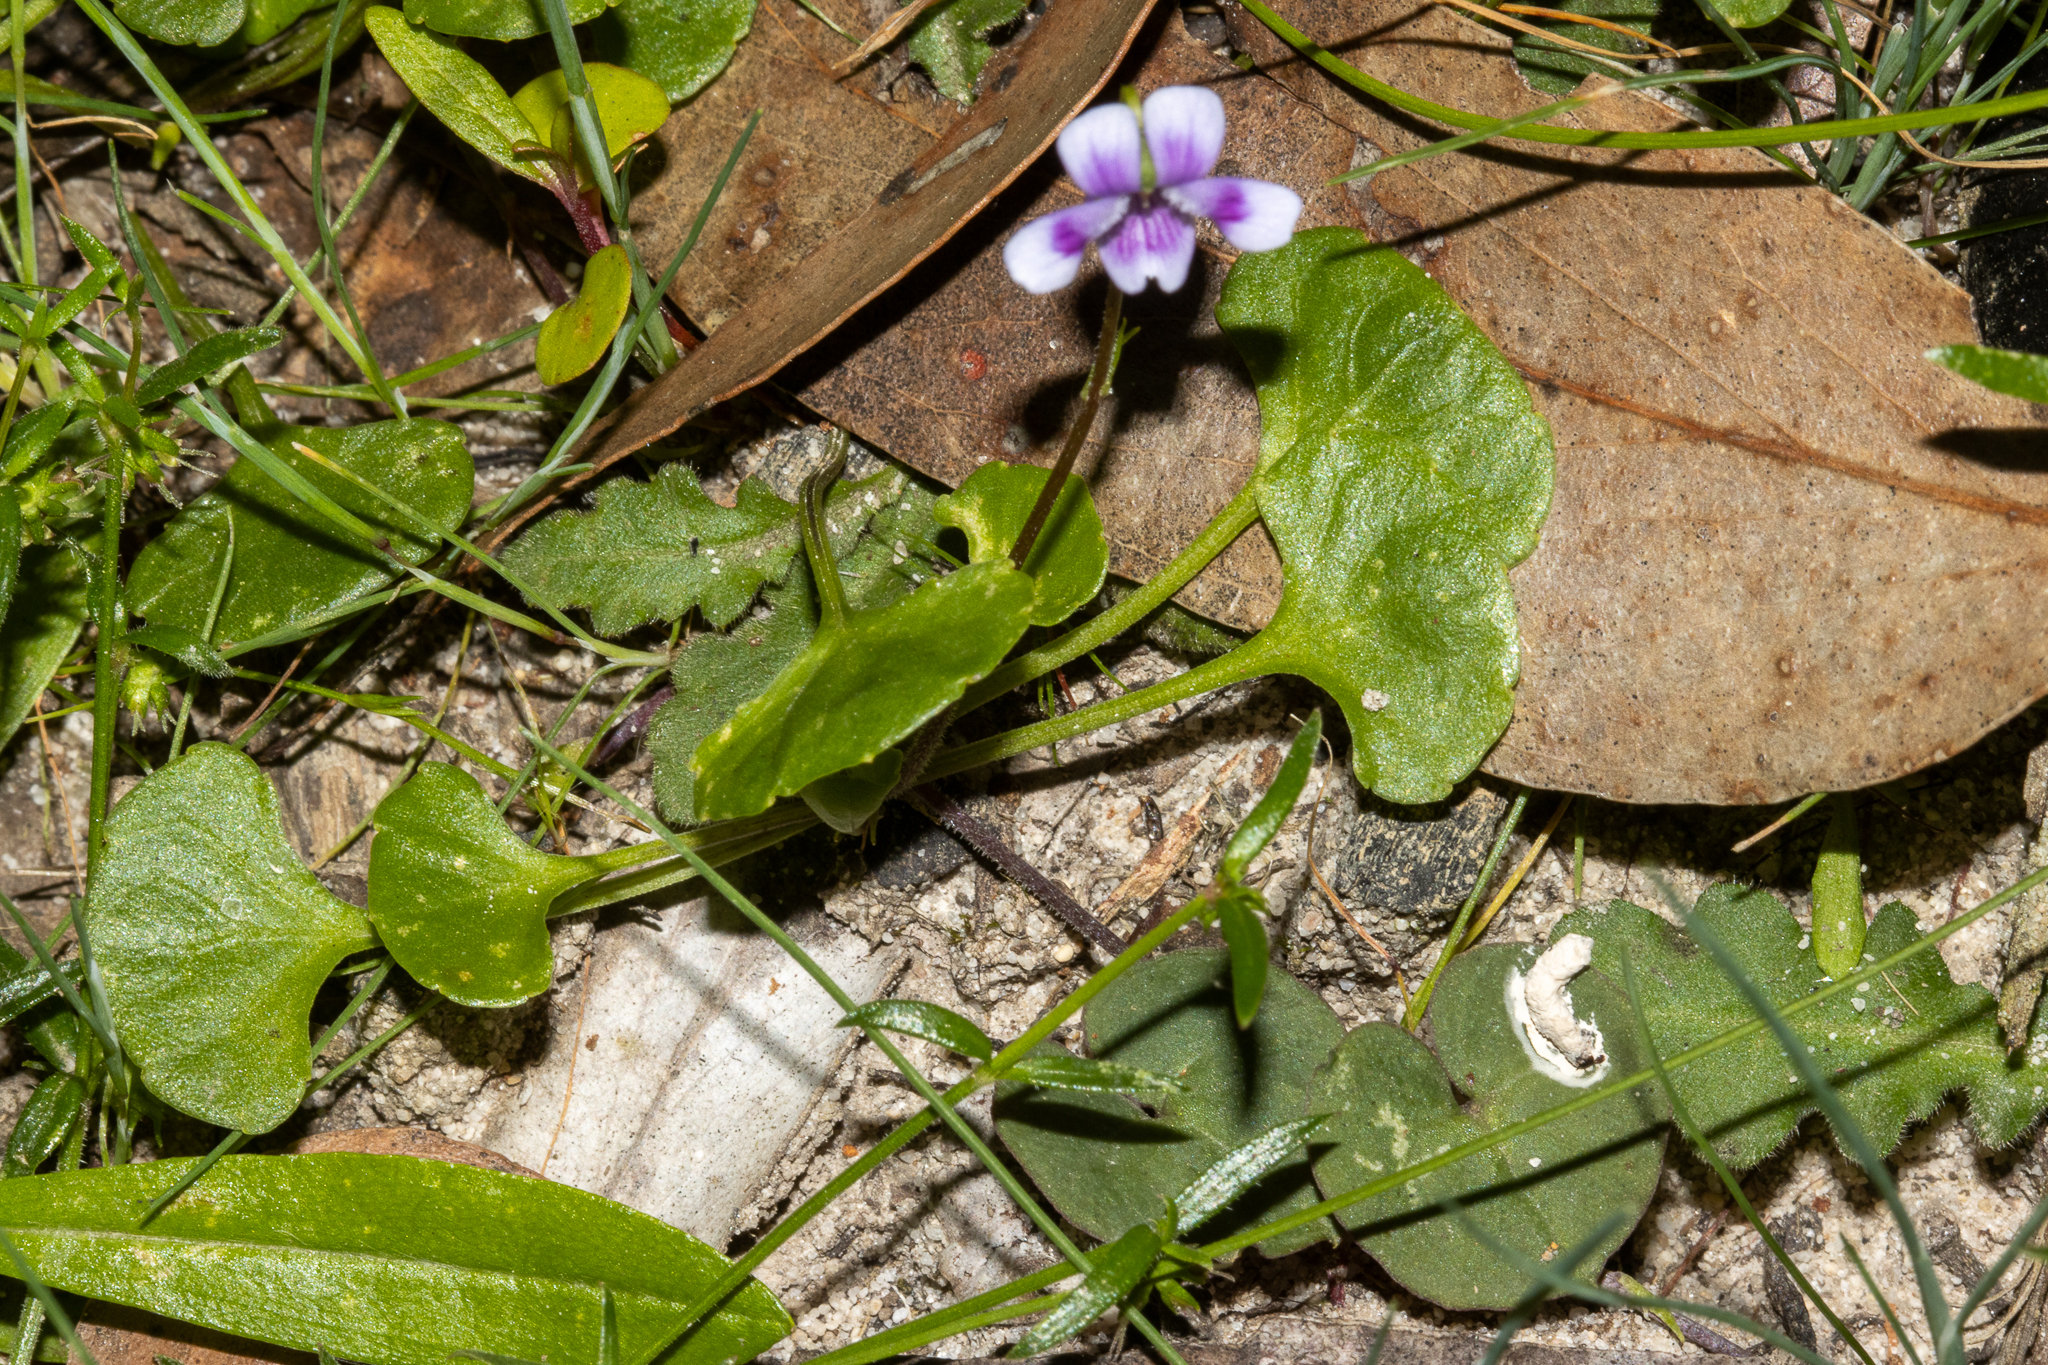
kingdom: Plantae
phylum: Tracheophyta
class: Magnoliopsida
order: Malpighiales
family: Violaceae
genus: Viola
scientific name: Viola hederacea
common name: Australian violet
